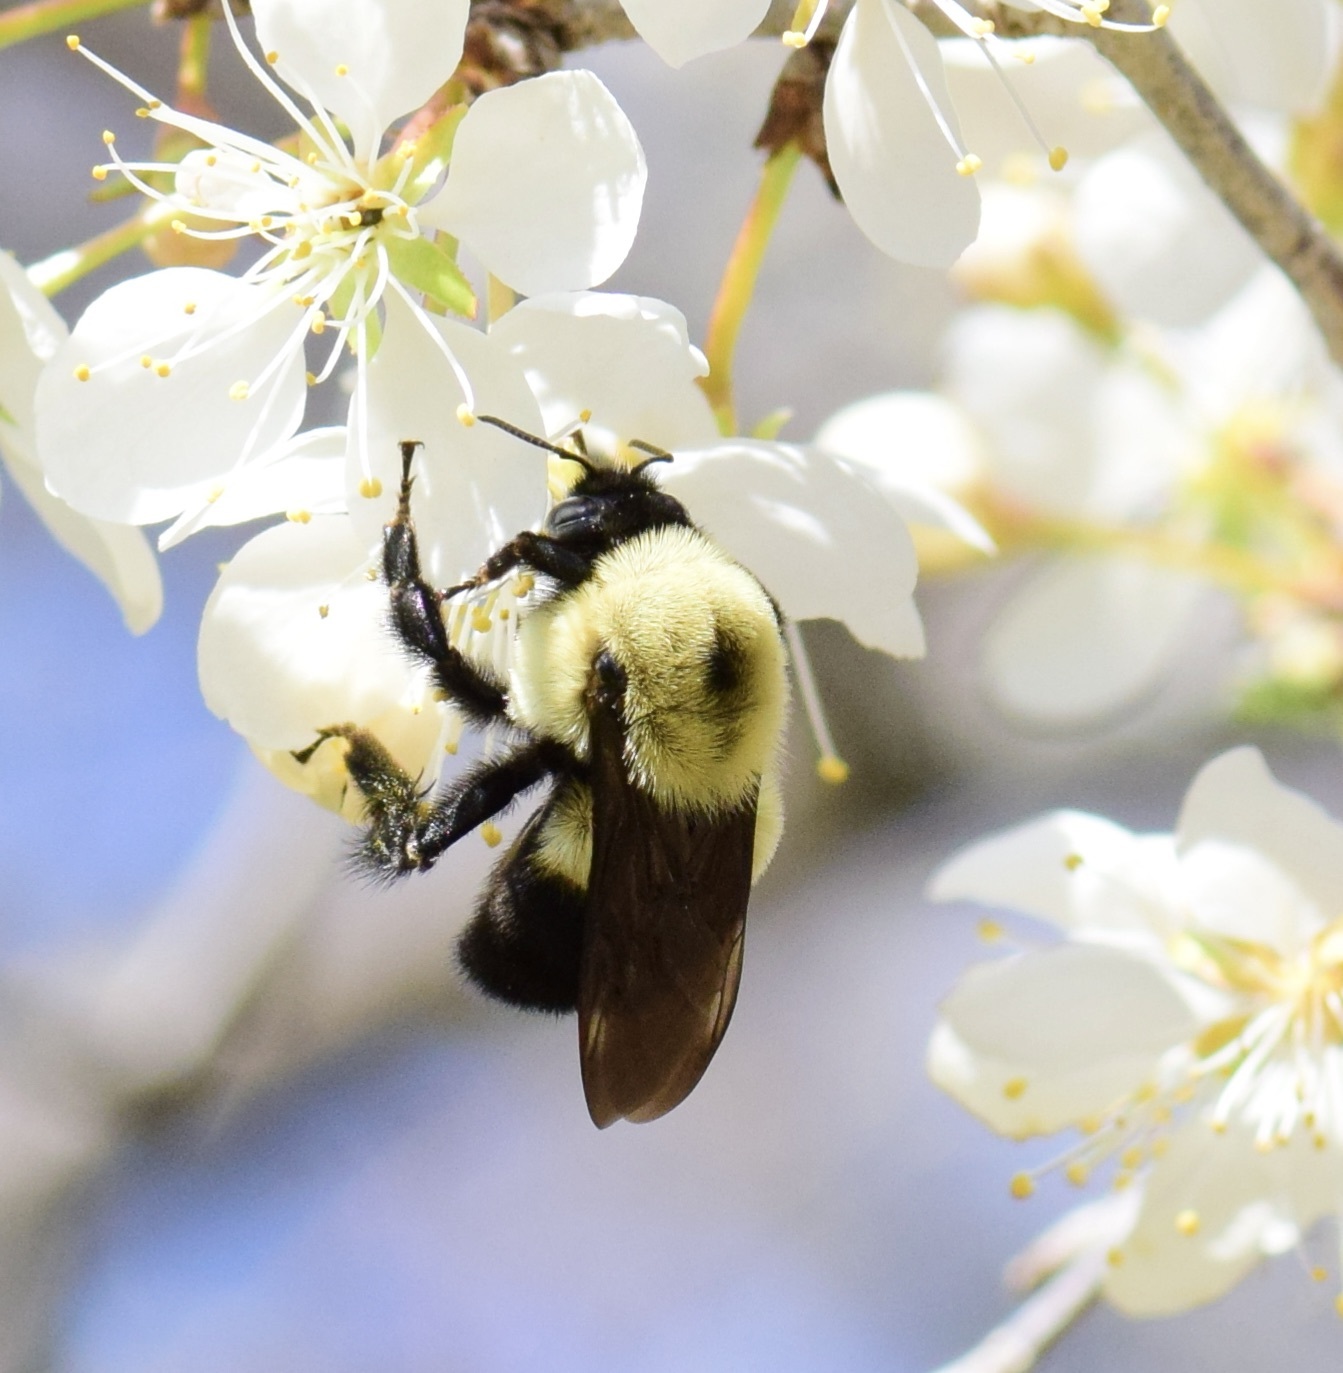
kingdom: Animalia
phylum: Arthropoda
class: Insecta
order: Hymenoptera
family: Apidae
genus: Bombus
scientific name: Bombus griseocollis
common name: Brown-belted bumble bee
